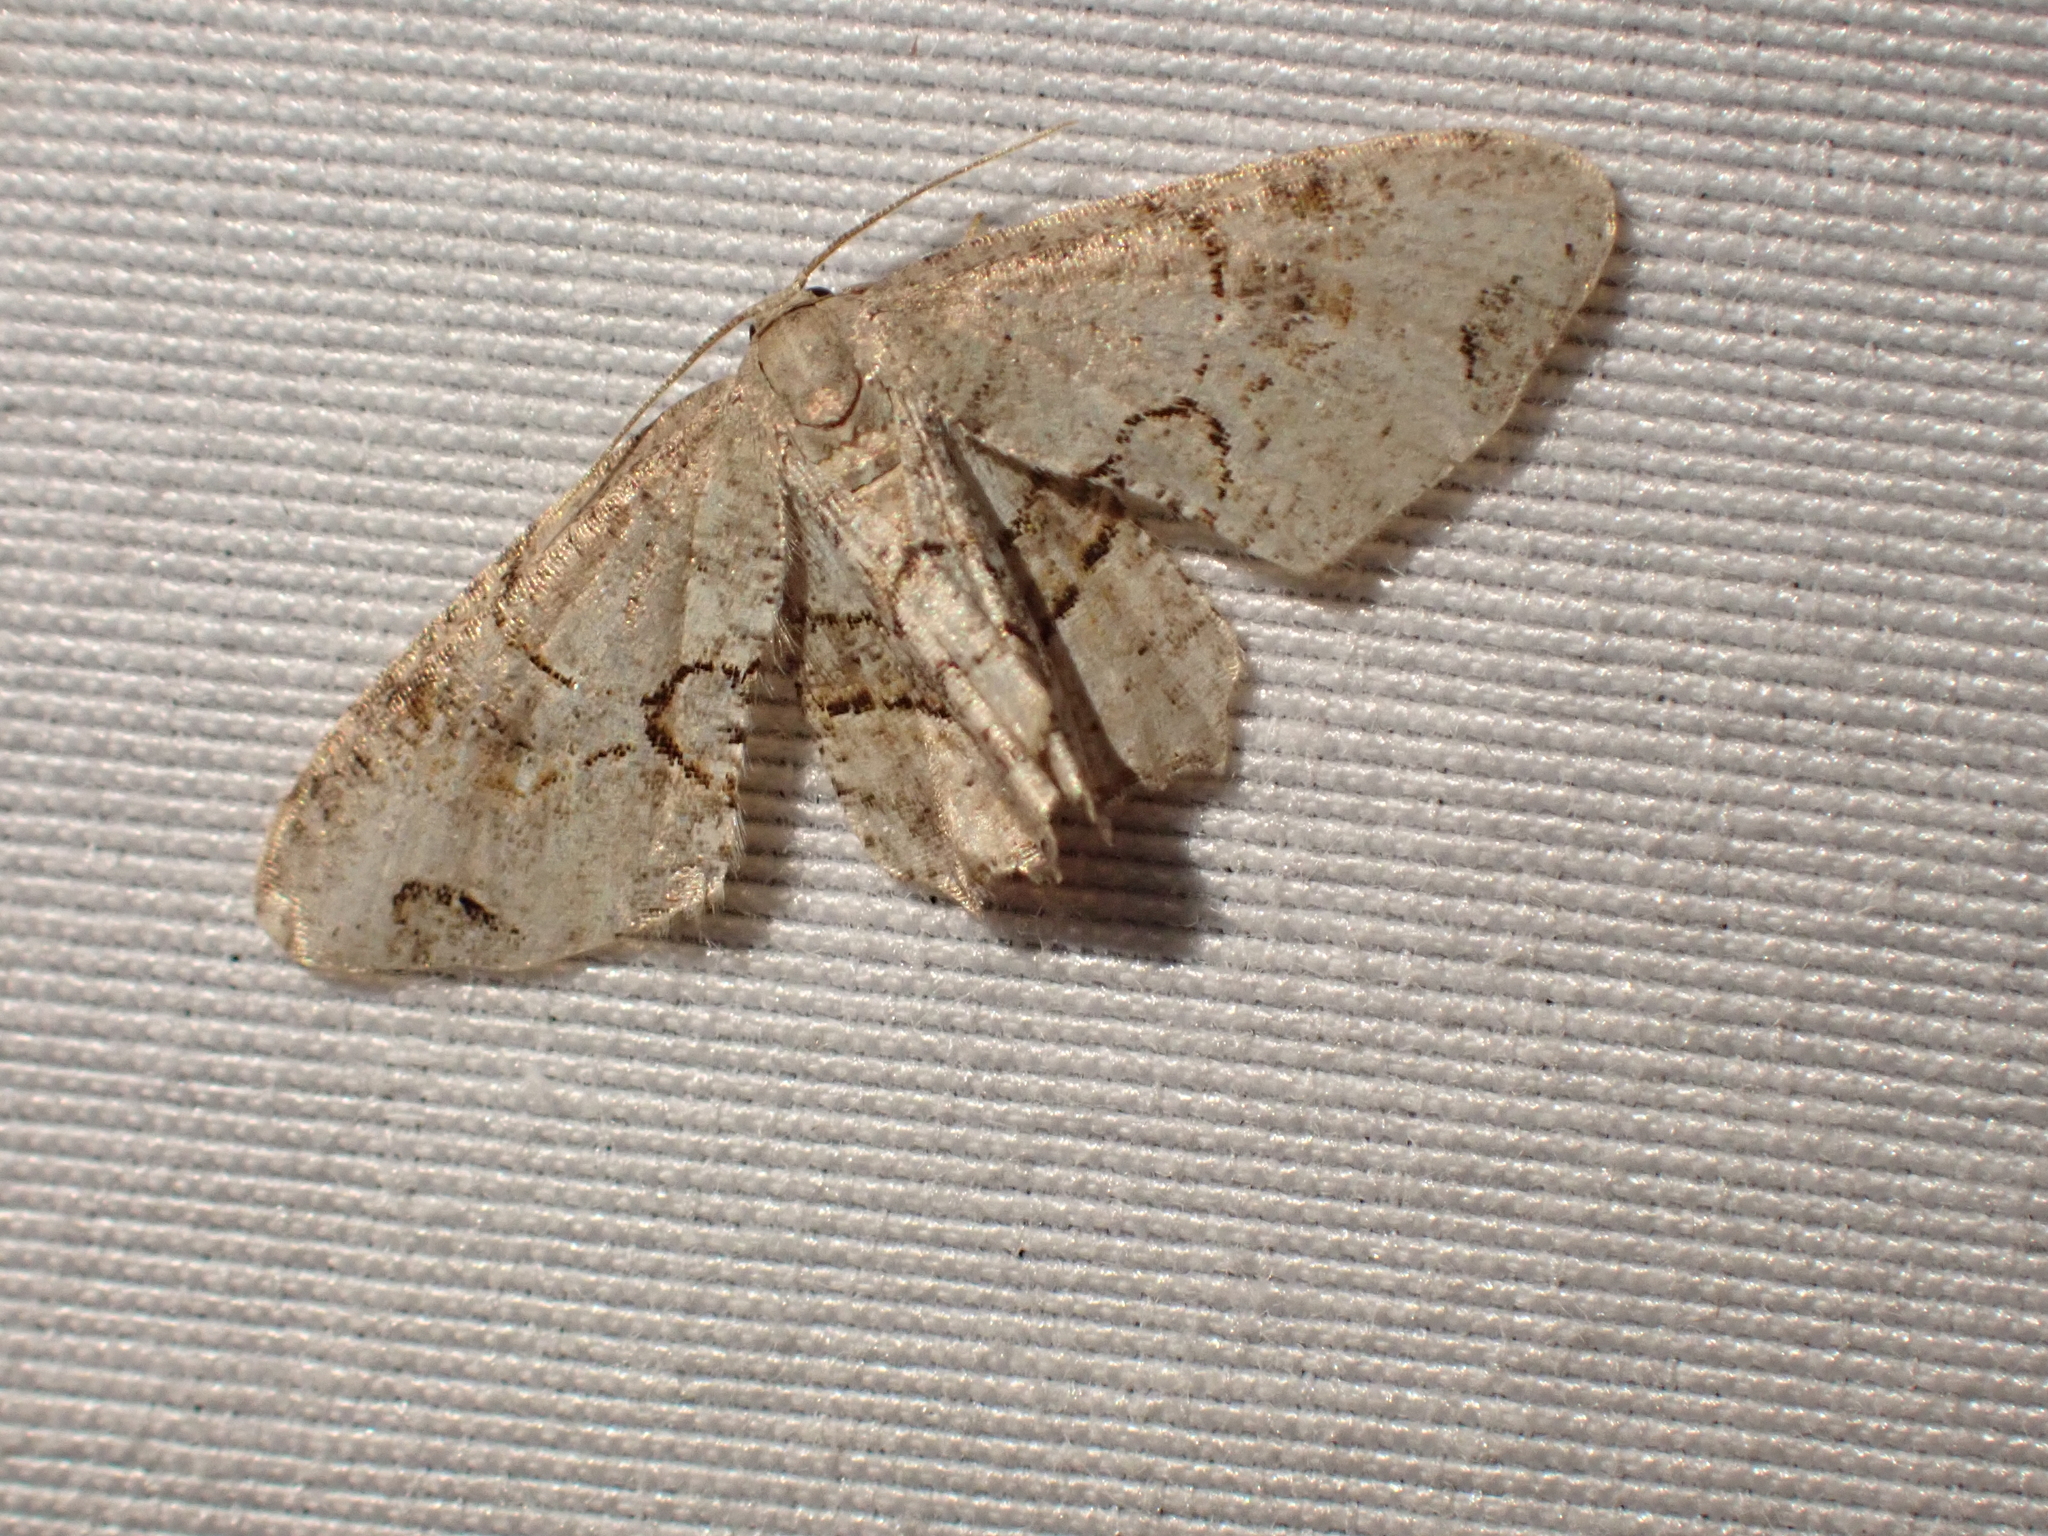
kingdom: Animalia
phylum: Arthropoda
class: Insecta
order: Lepidoptera
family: Uraniidae
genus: Epiplema
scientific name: Epiplema Callizzia amorata
